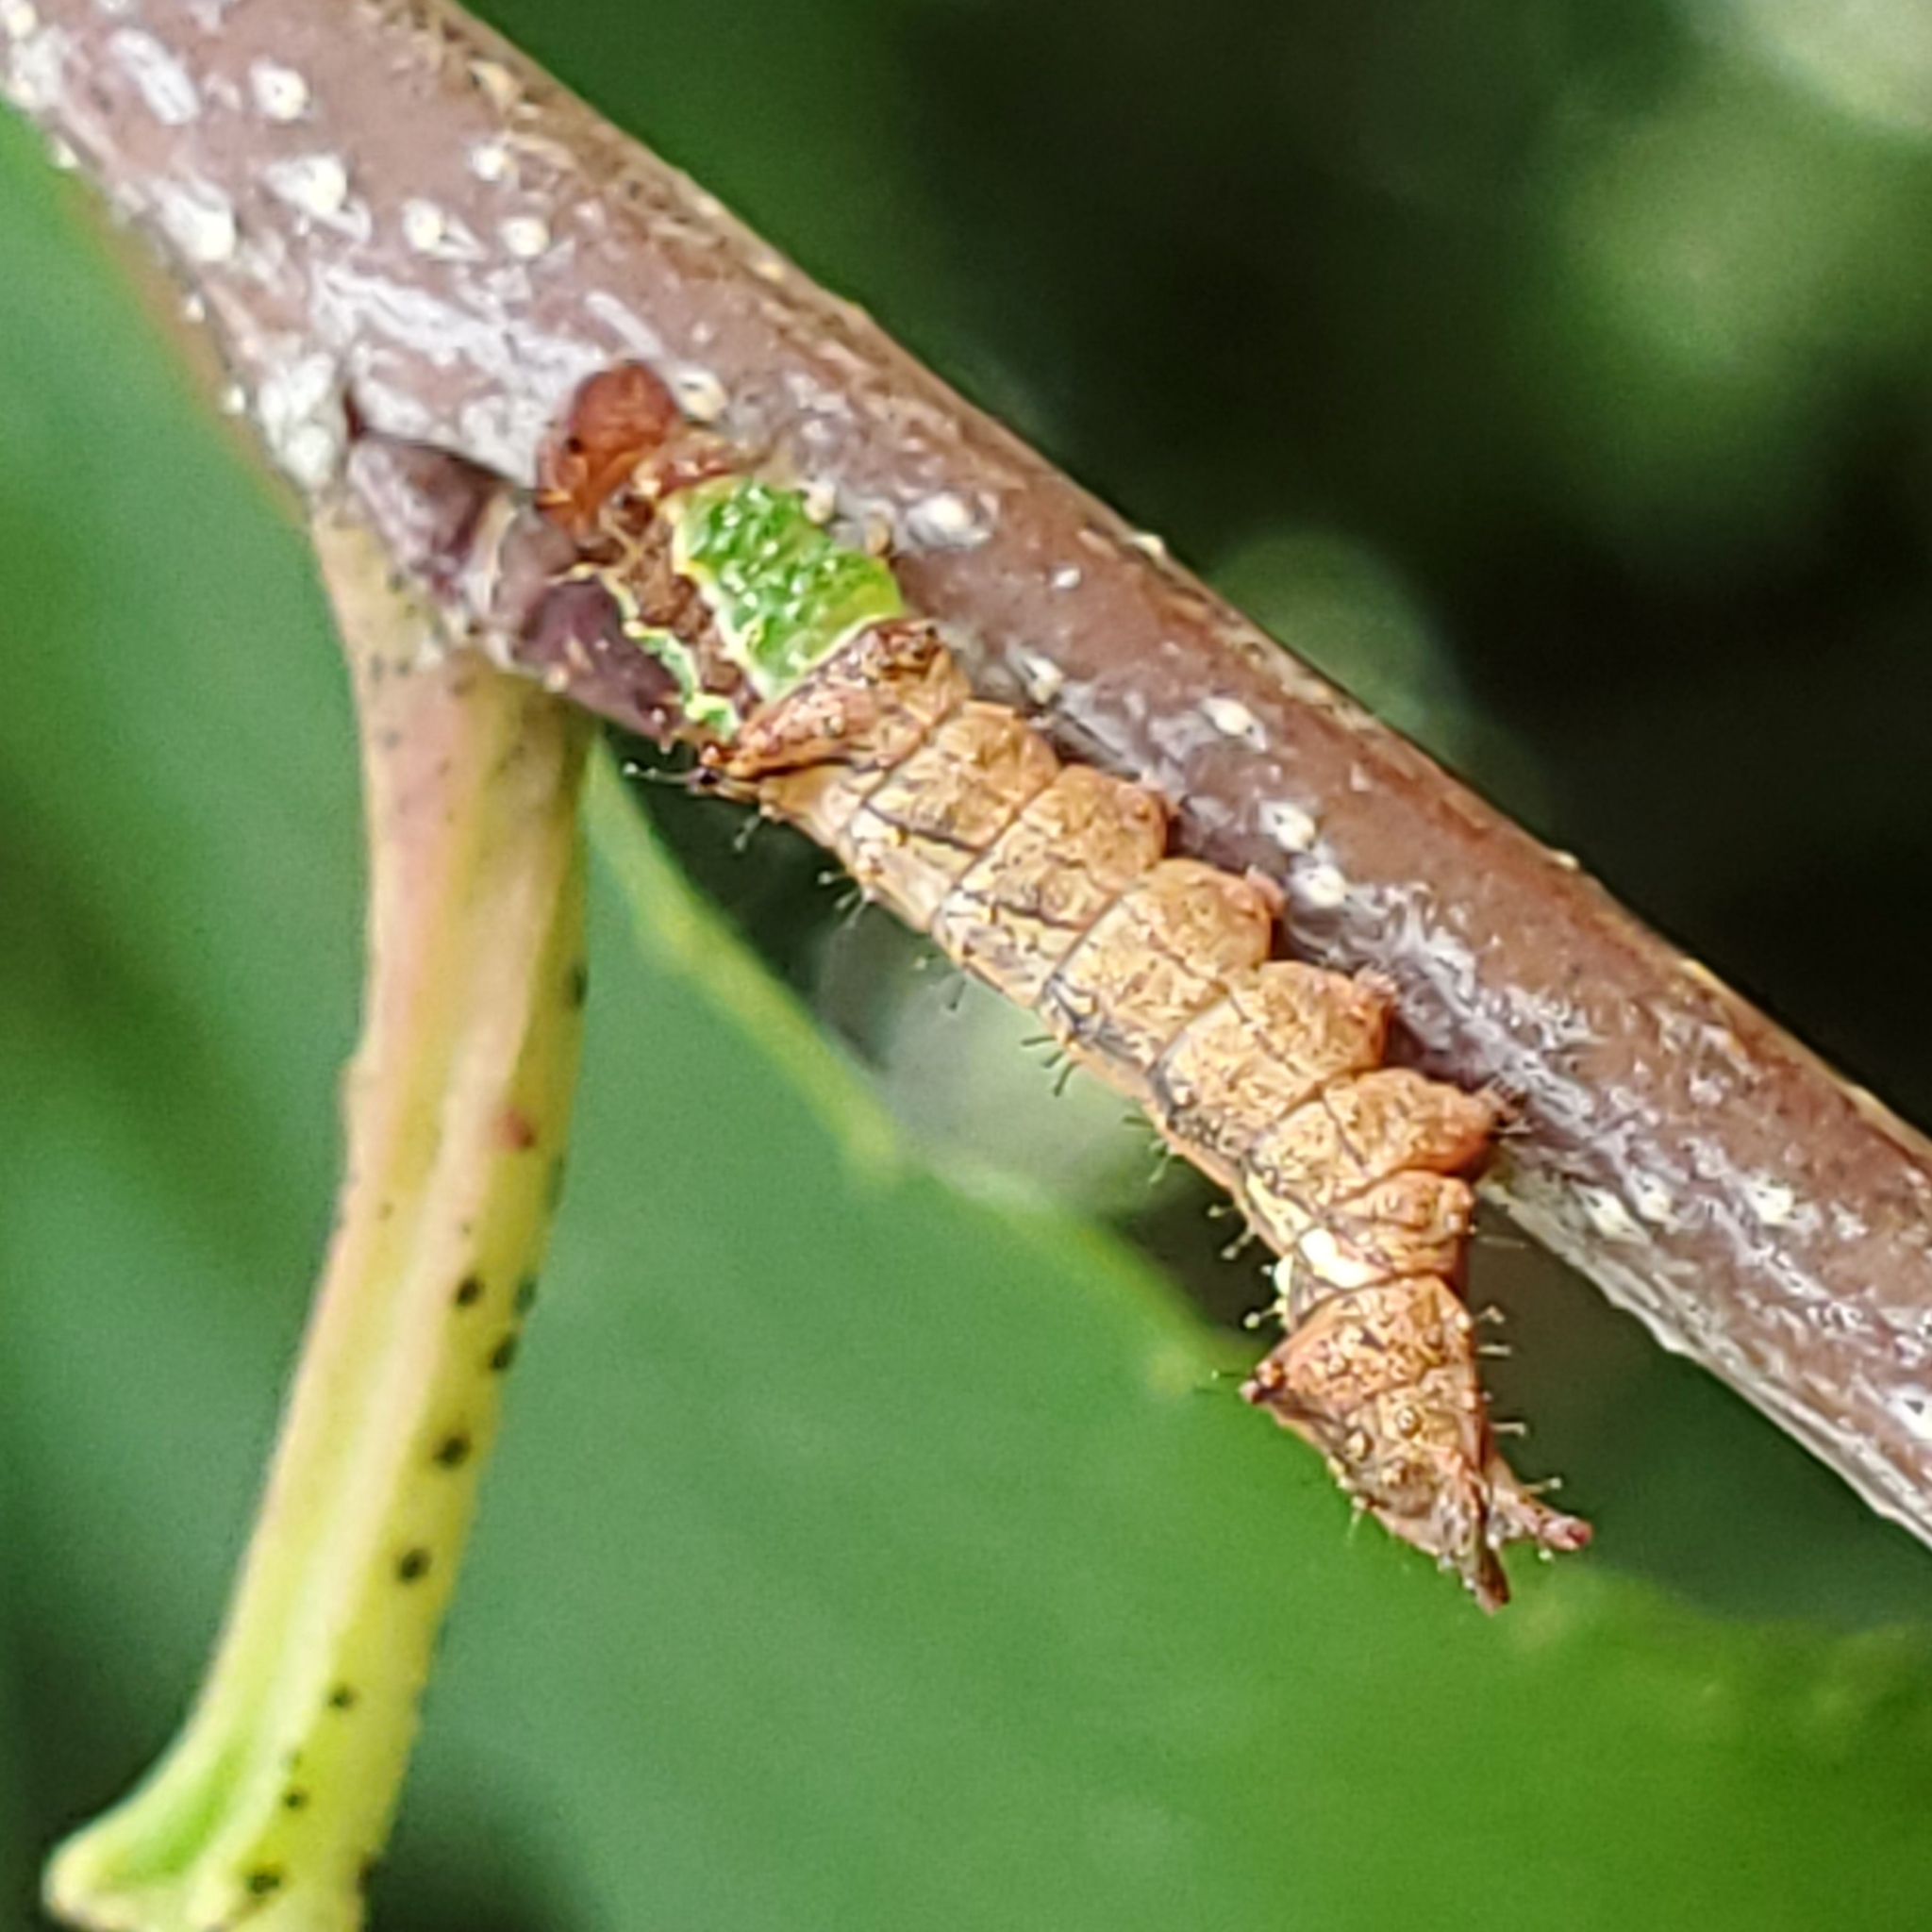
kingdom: Animalia
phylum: Arthropoda
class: Insecta
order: Lepidoptera
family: Notodontidae
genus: Schizura
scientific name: Schizura
